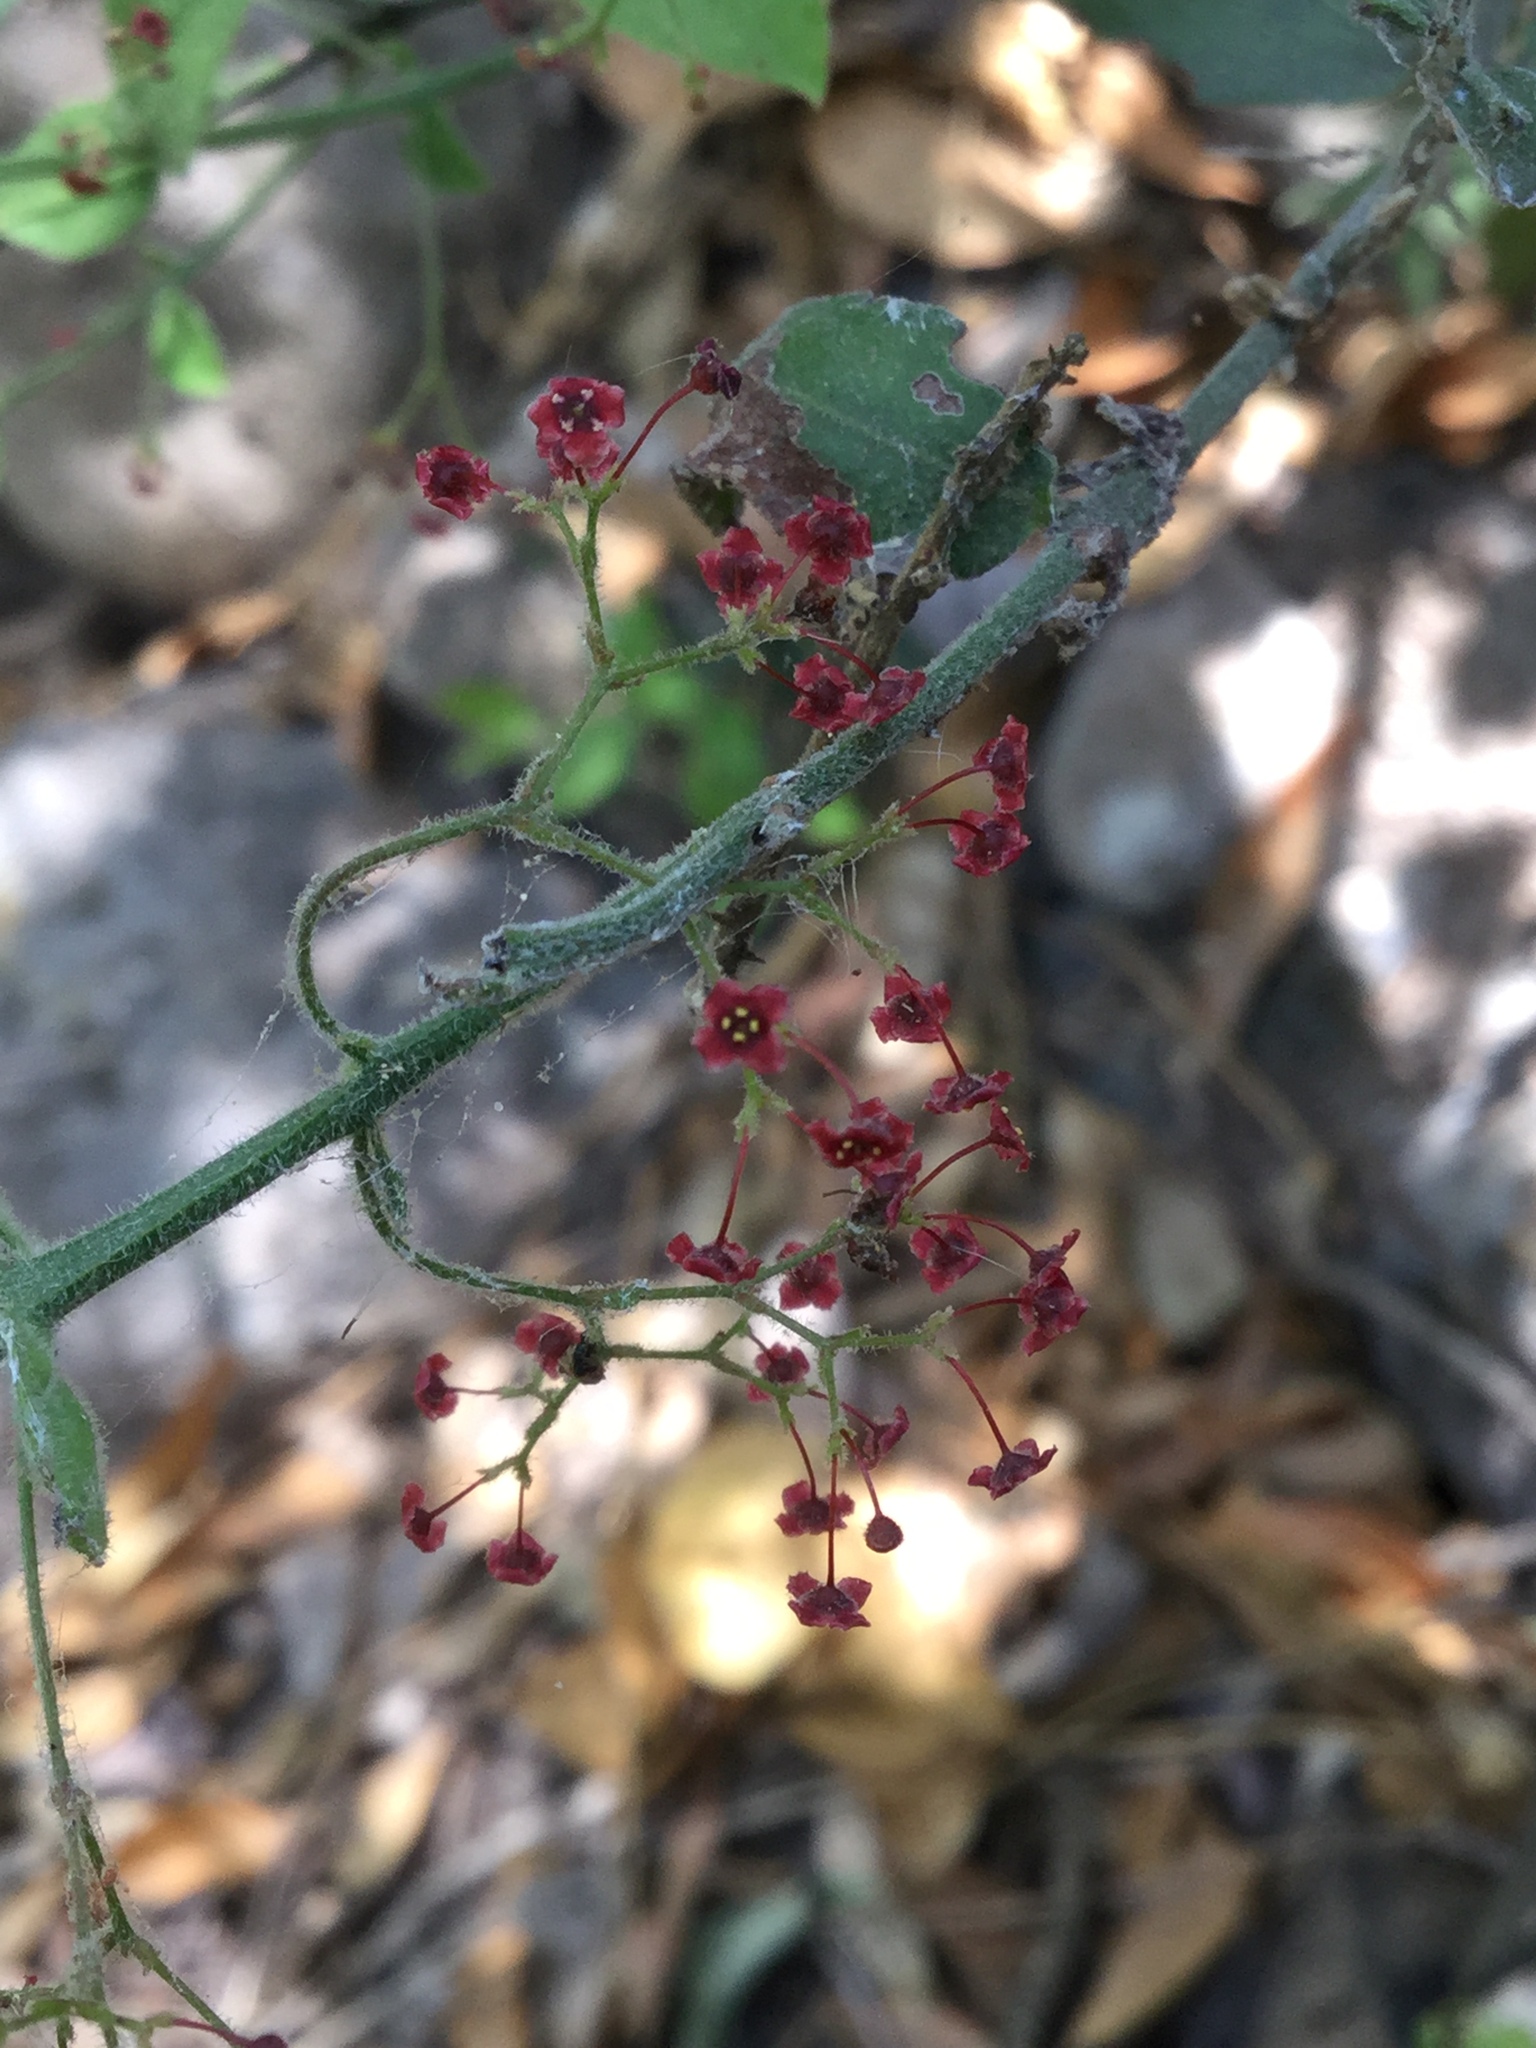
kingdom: Plantae
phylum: Tracheophyta
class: Magnoliopsida
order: Celastrales
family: Celastraceae
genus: Crossopetalum
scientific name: Crossopetalum uragoga
